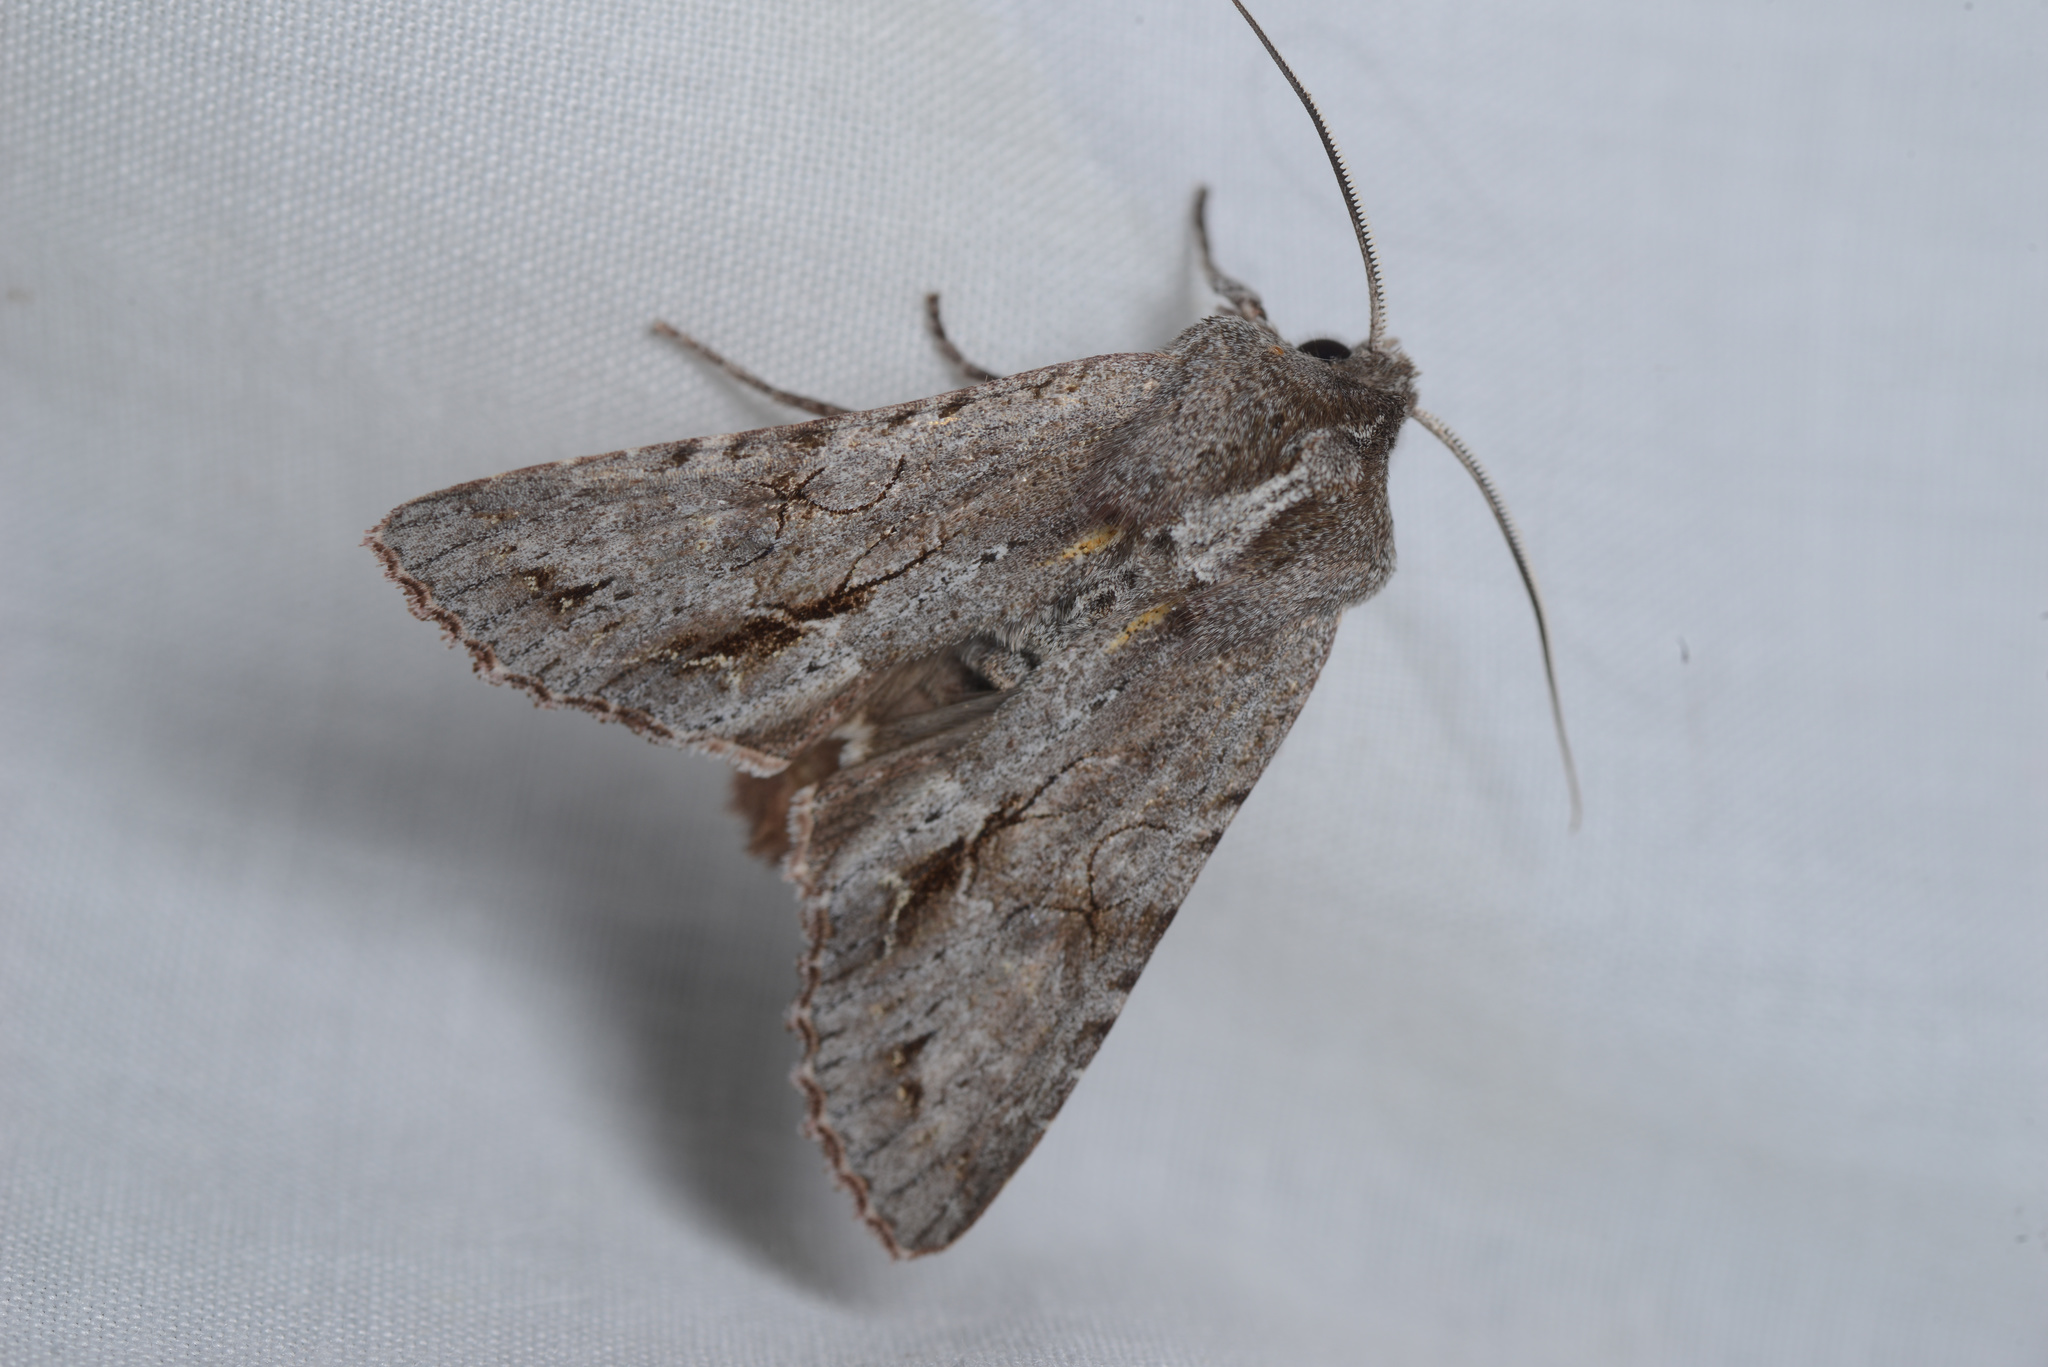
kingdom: Animalia
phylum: Arthropoda
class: Insecta
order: Lepidoptera
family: Noctuidae
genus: Ichneutica
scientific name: Ichneutica
